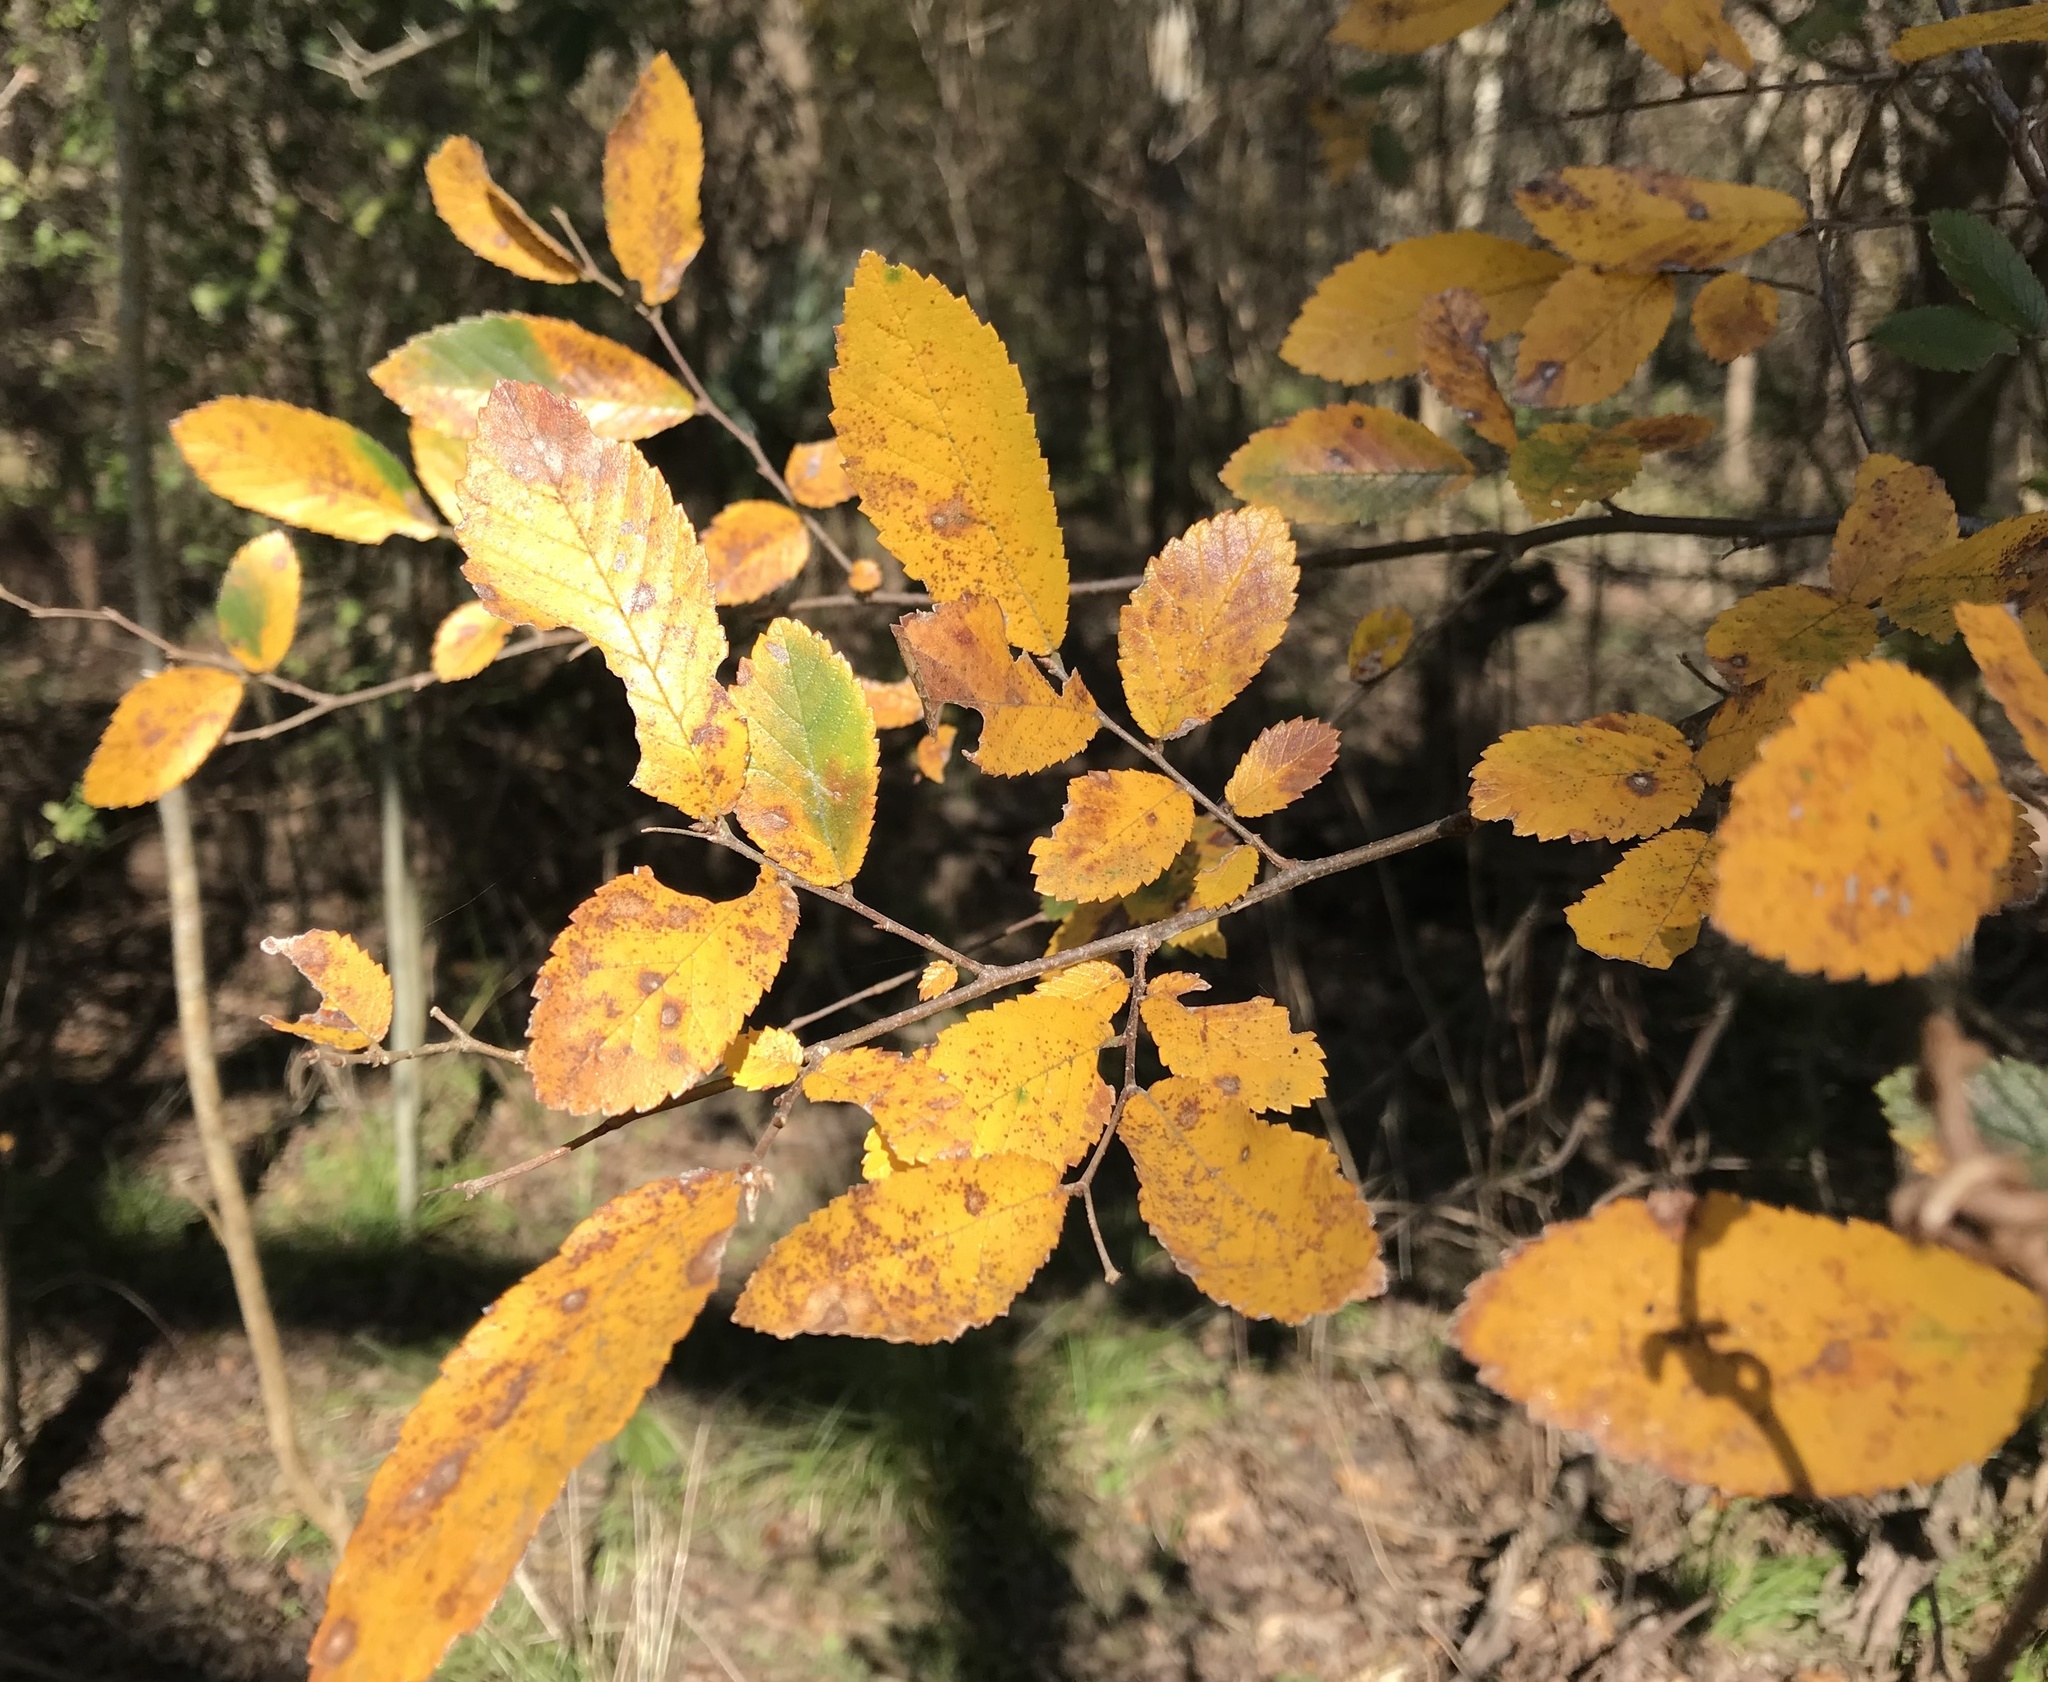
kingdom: Plantae
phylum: Tracheophyta
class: Magnoliopsida
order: Rosales
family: Ulmaceae
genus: Ulmus
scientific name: Ulmus crassifolia
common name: Basket elm
